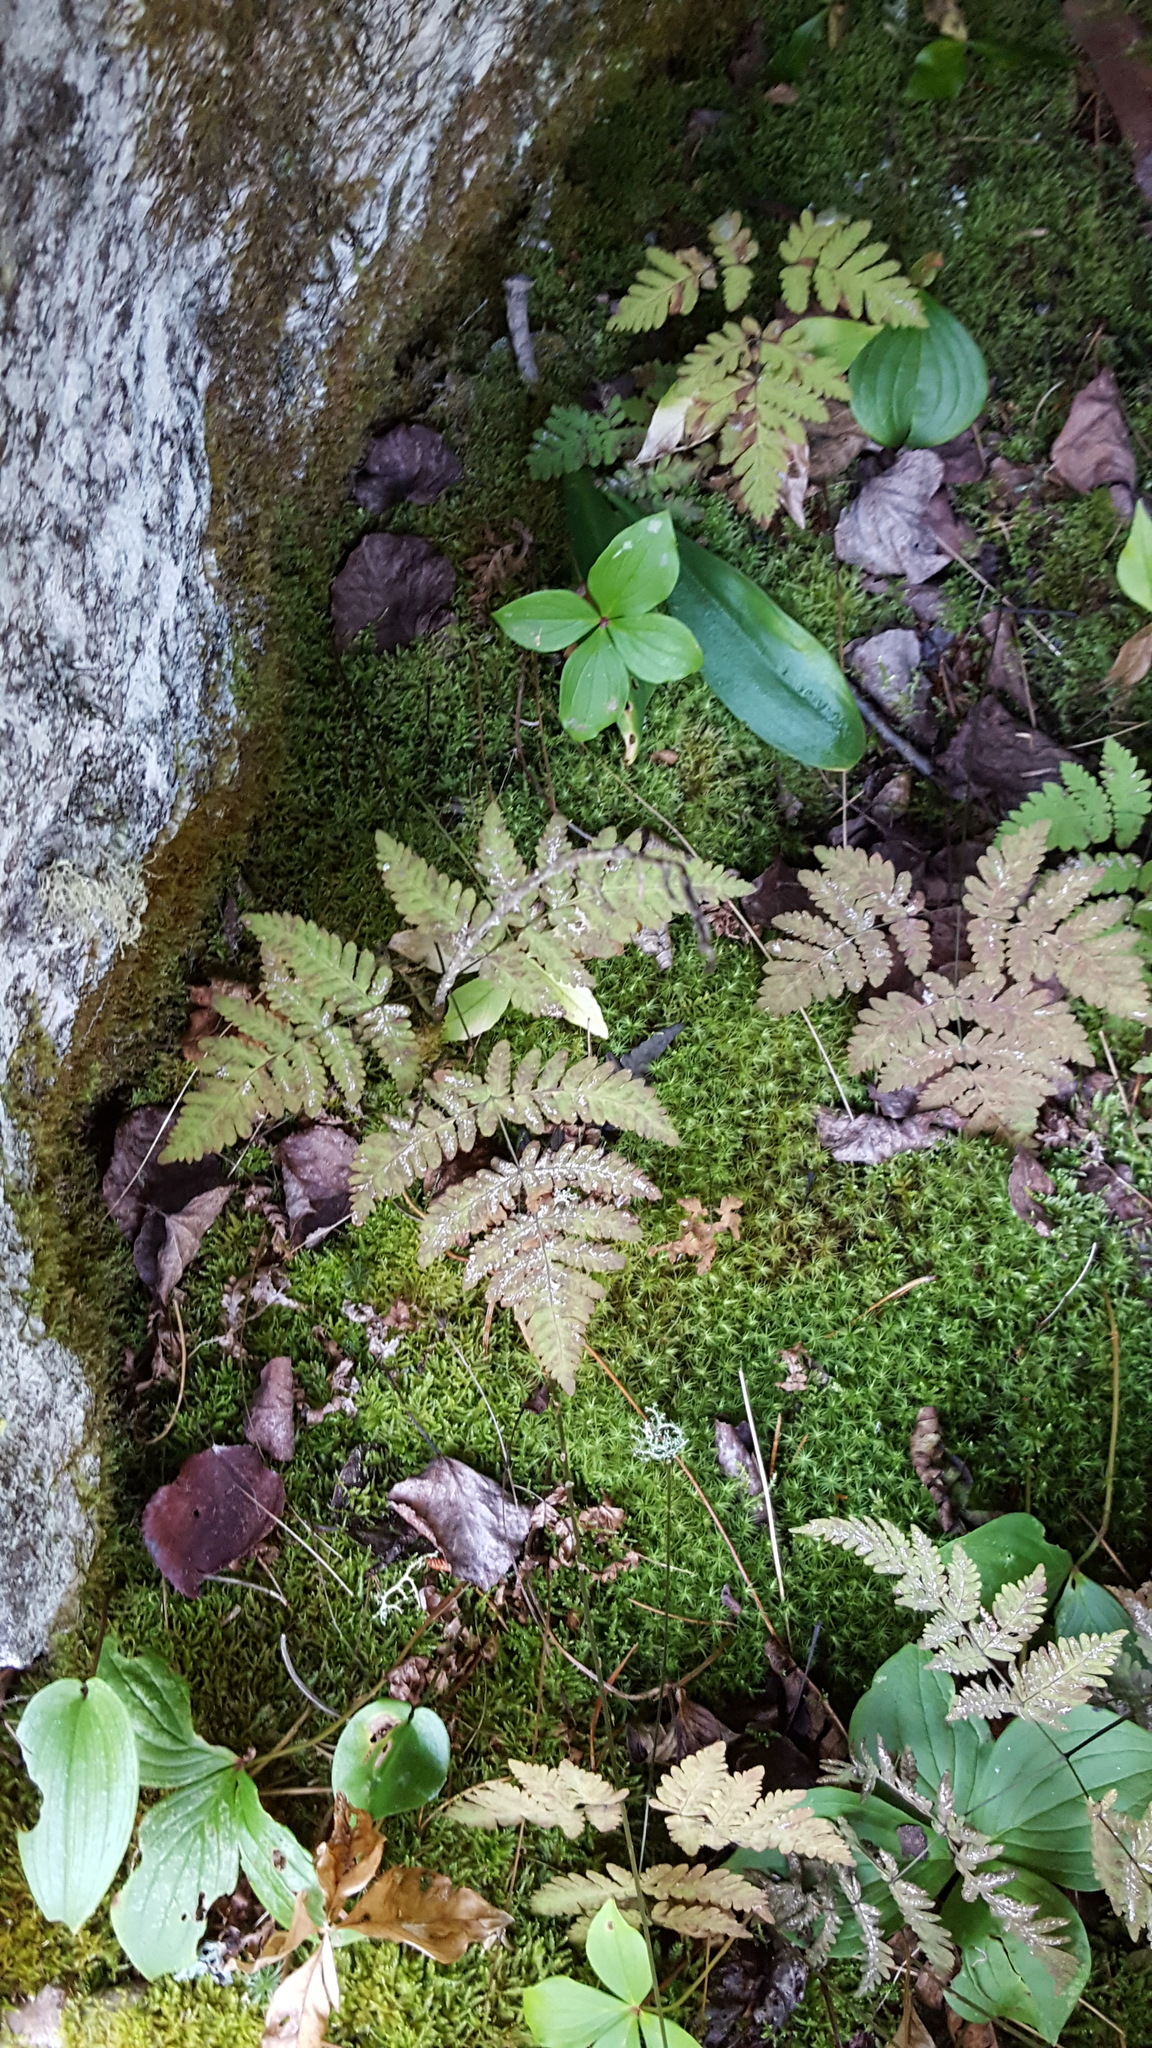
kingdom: Plantae
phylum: Tracheophyta
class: Polypodiopsida
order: Polypodiales
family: Cystopteridaceae
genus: Gymnocarpium
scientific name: Gymnocarpium dryopteris
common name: Oak fern
